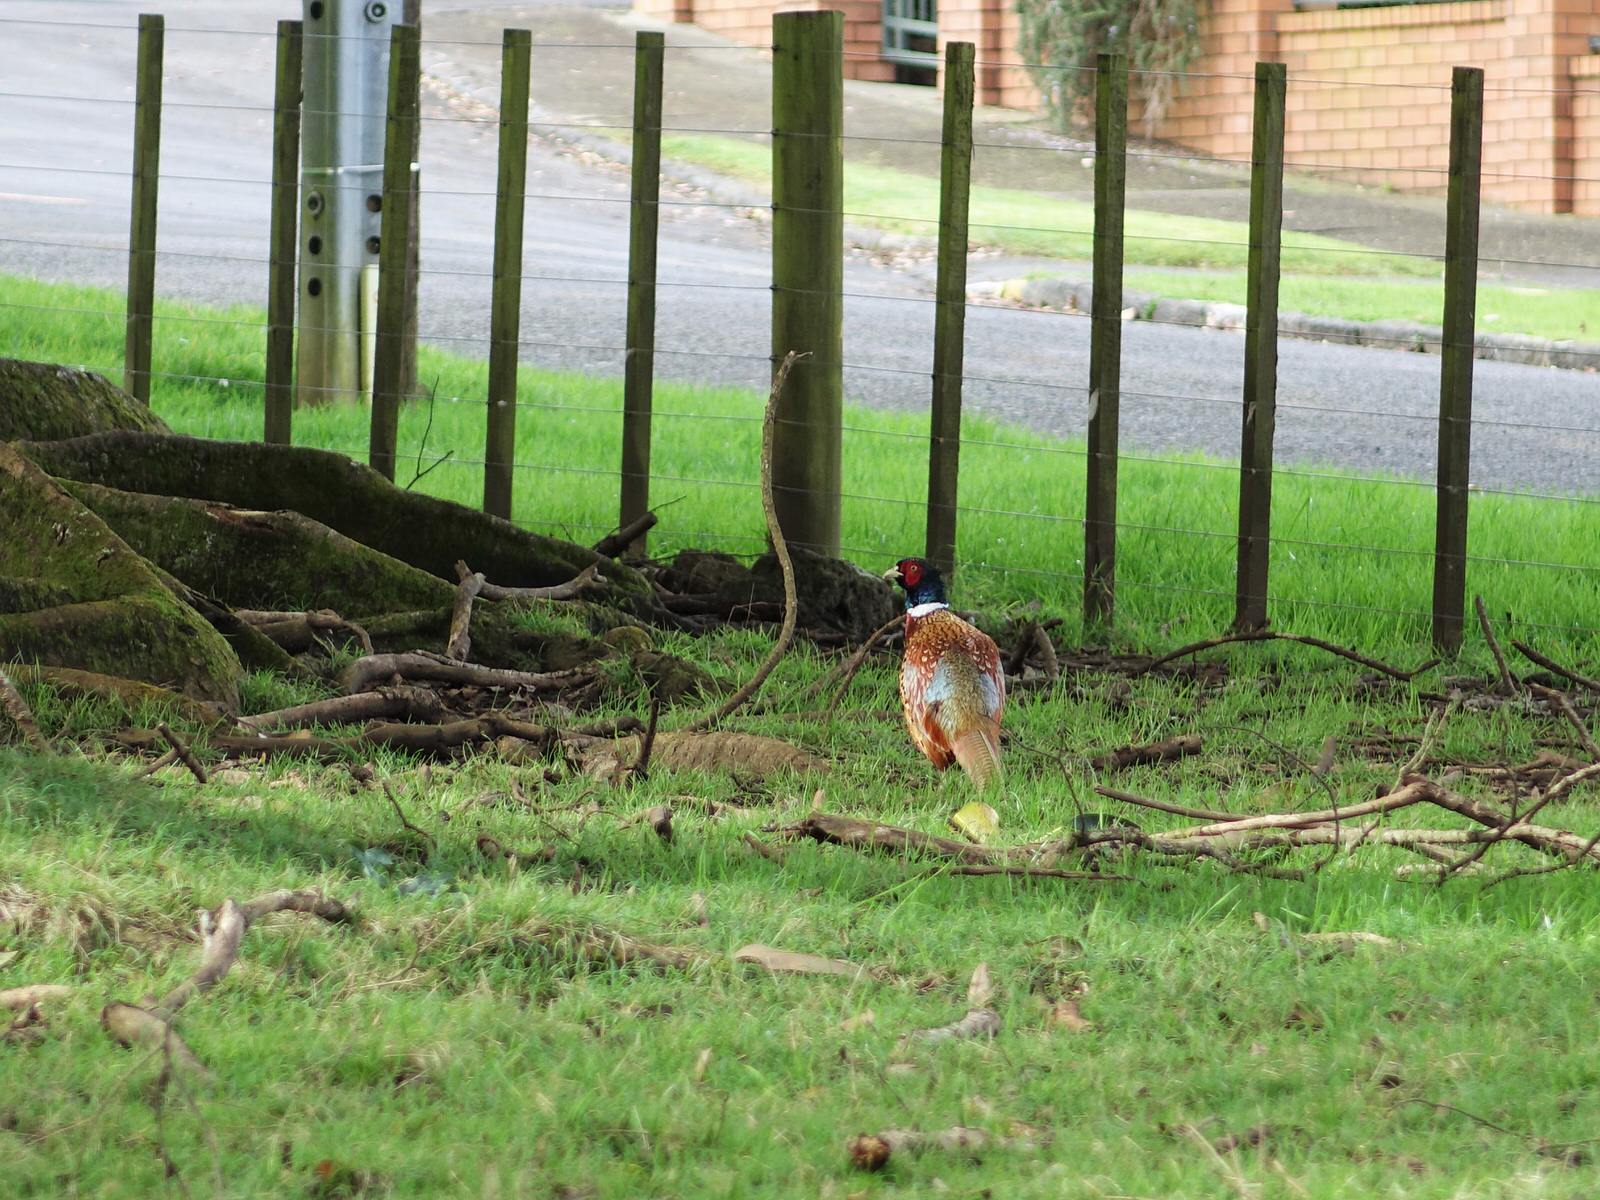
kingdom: Animalia
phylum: Chordata
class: Aves
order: Galliformes
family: Phasianidae
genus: Phasianus
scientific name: Phasianus colchicus
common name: Common pheasant
